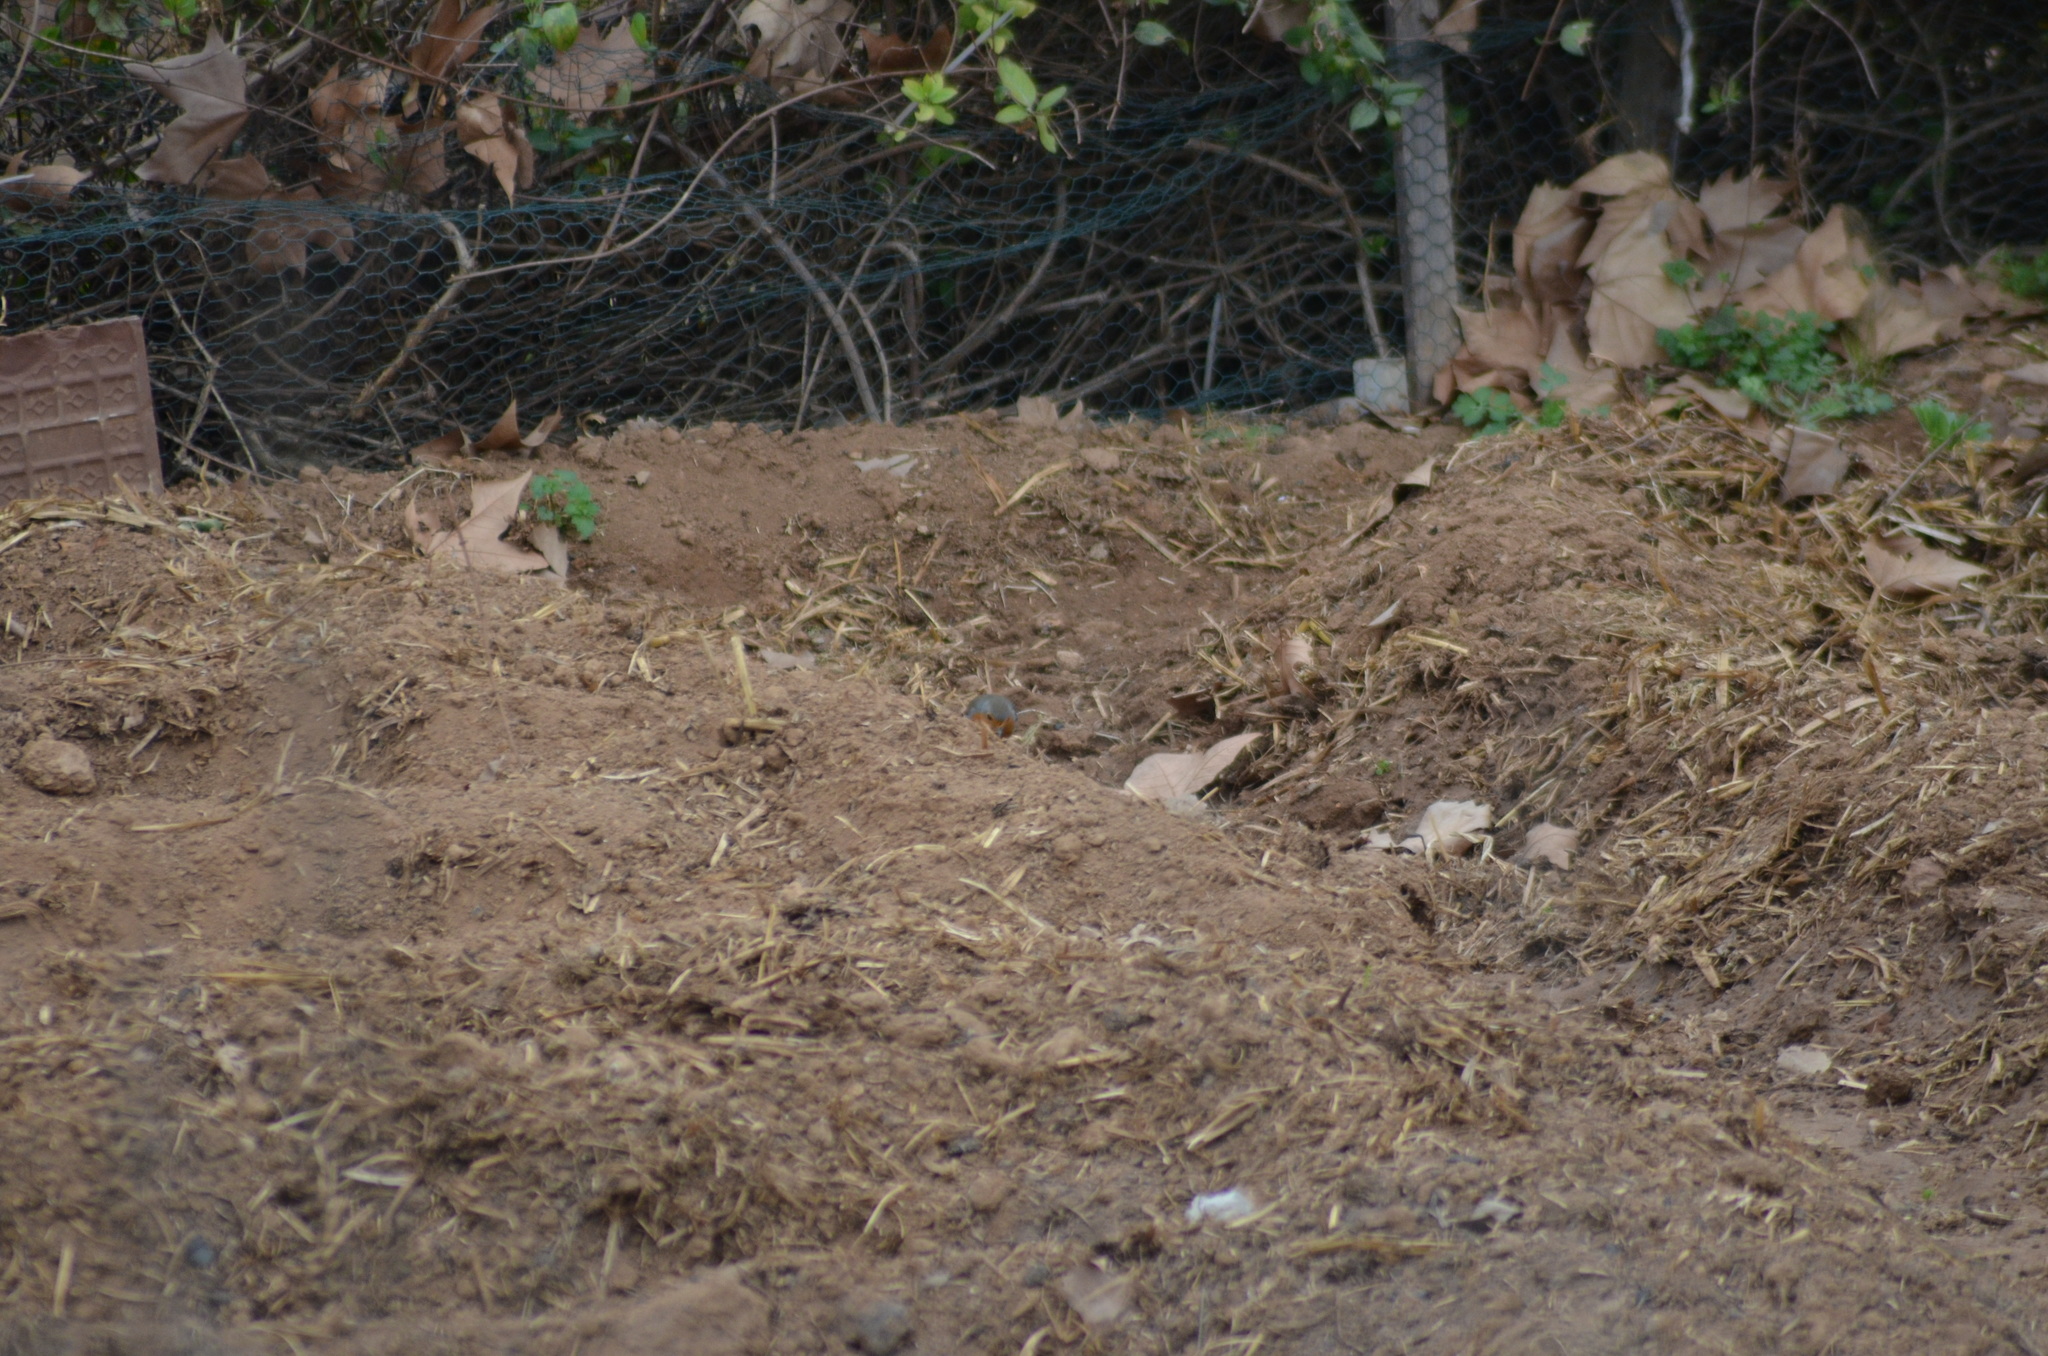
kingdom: Animalia
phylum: Chordata
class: Aves
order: Passeriformes
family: Muscicapidae
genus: Erithacus
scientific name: Erithacus rubecula
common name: European robin
